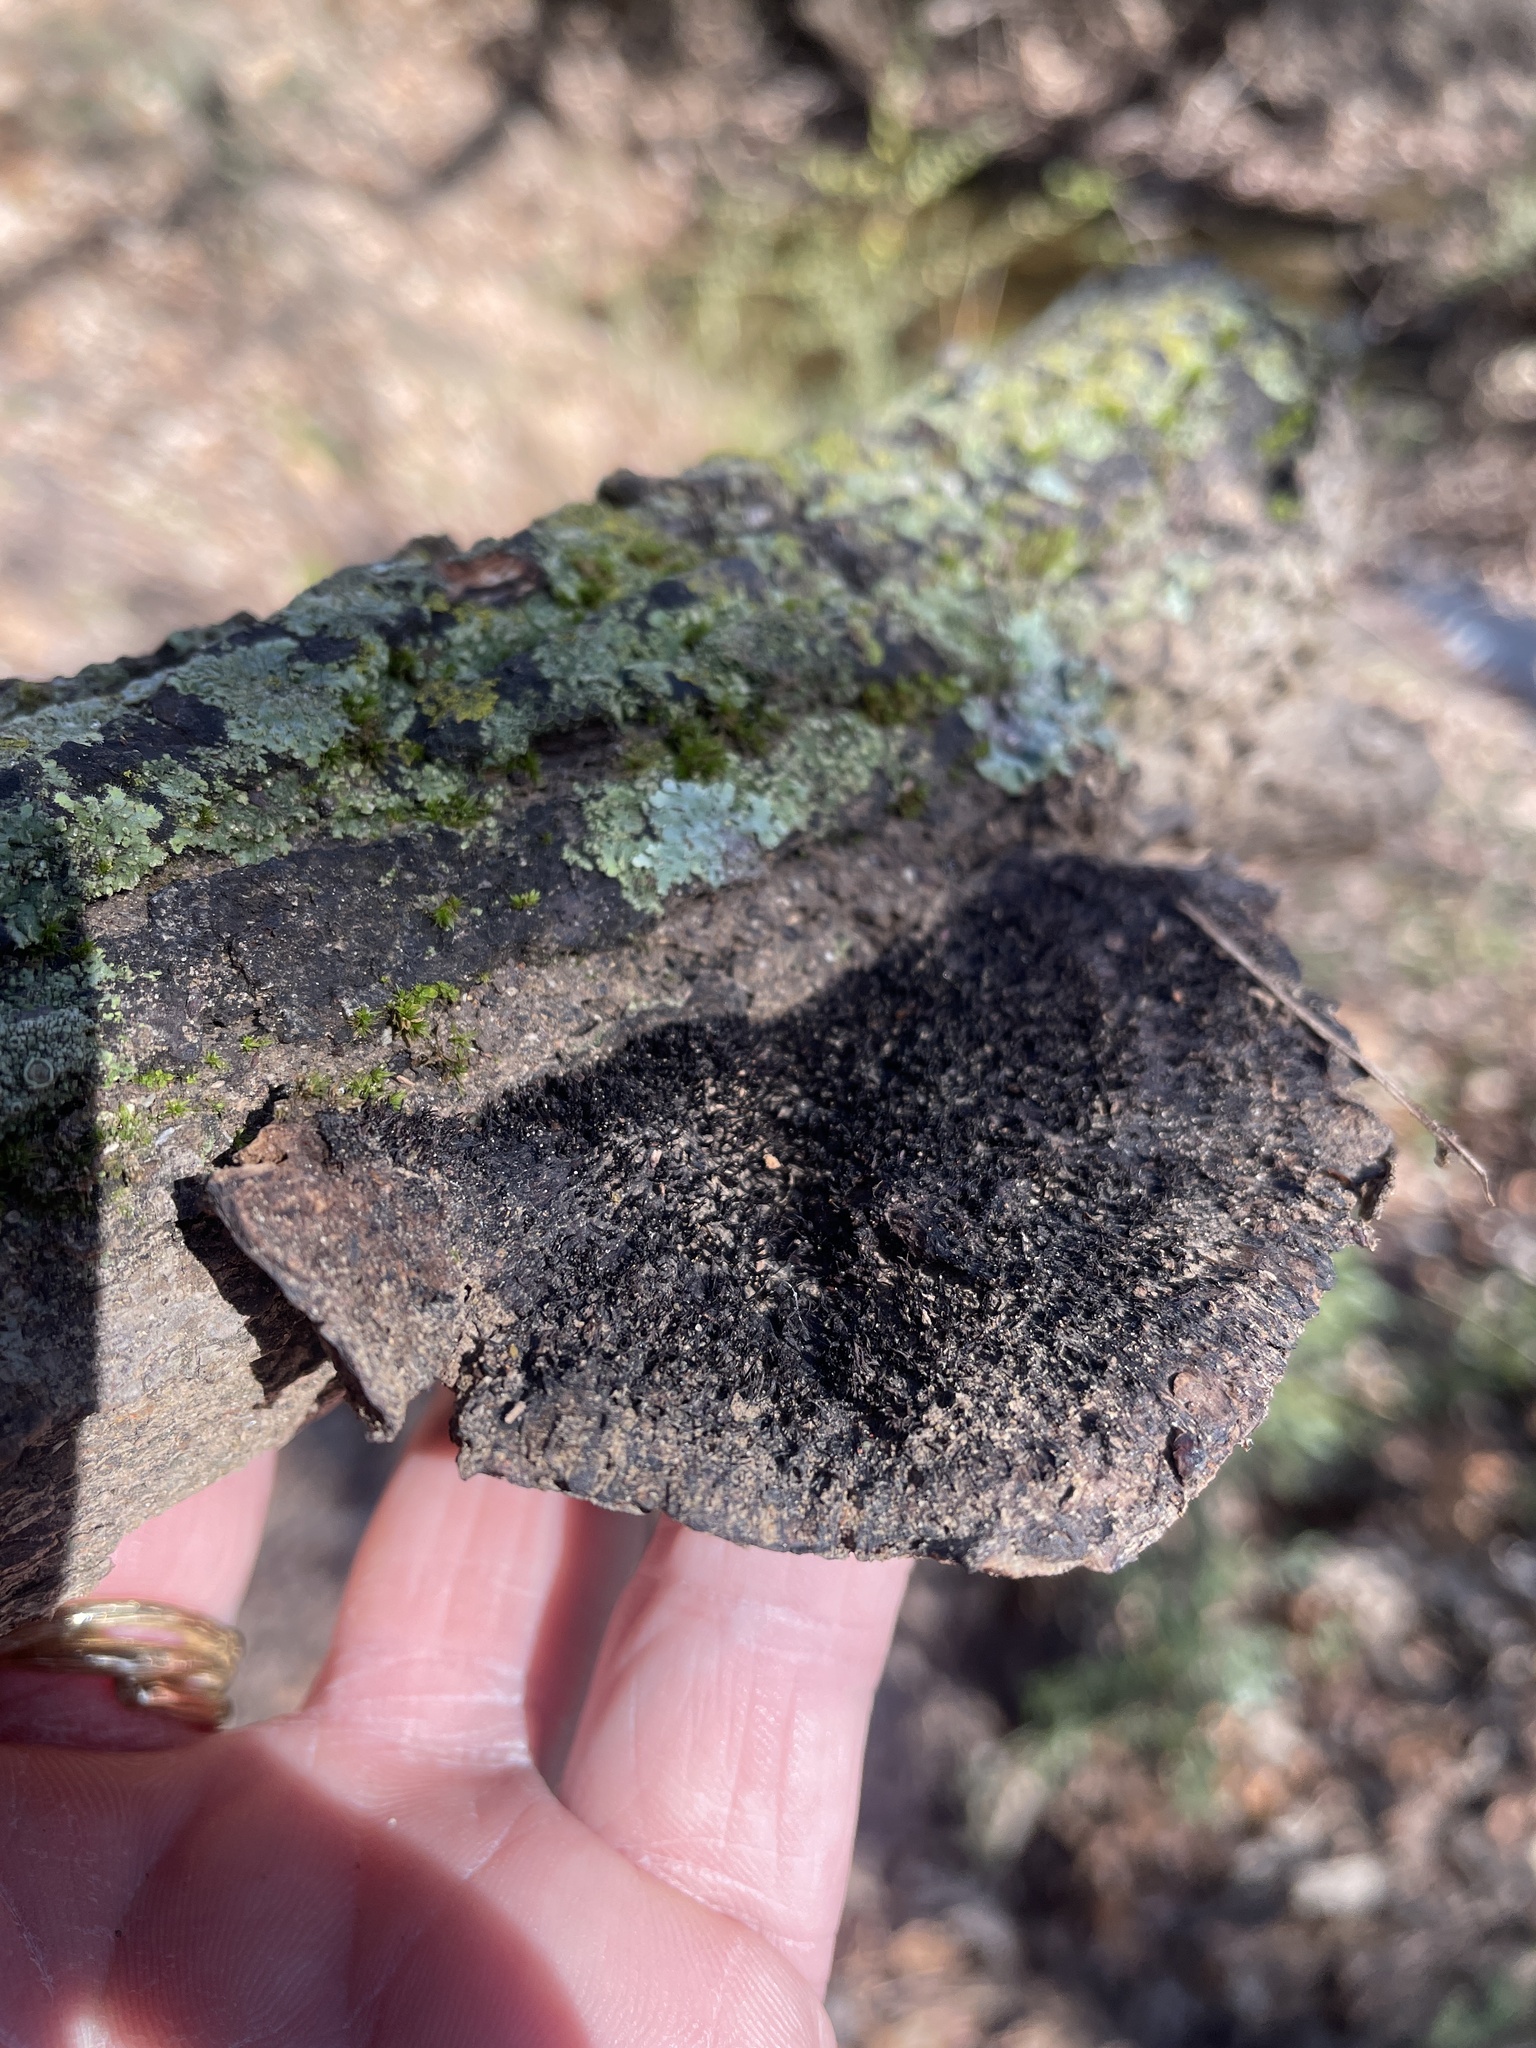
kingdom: Fungi
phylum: Basidiomycota
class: Agaricomycetes
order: Polyporales
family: Cerrenaceae
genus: Cerrena
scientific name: Cerrena hydnoides
